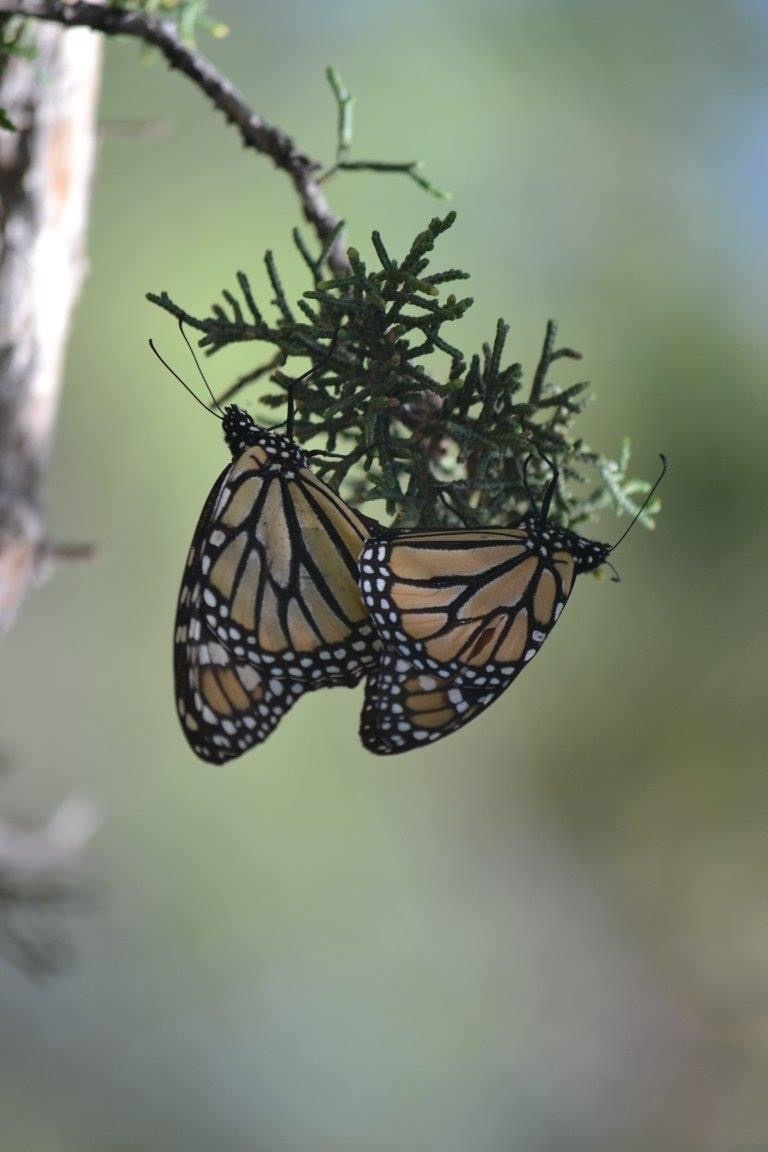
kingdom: Animalia
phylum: Arthropoda
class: Insecta
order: Lepidoptera
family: Nymphalidae
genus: Danaus
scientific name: Danaus plexippus
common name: Monarch
